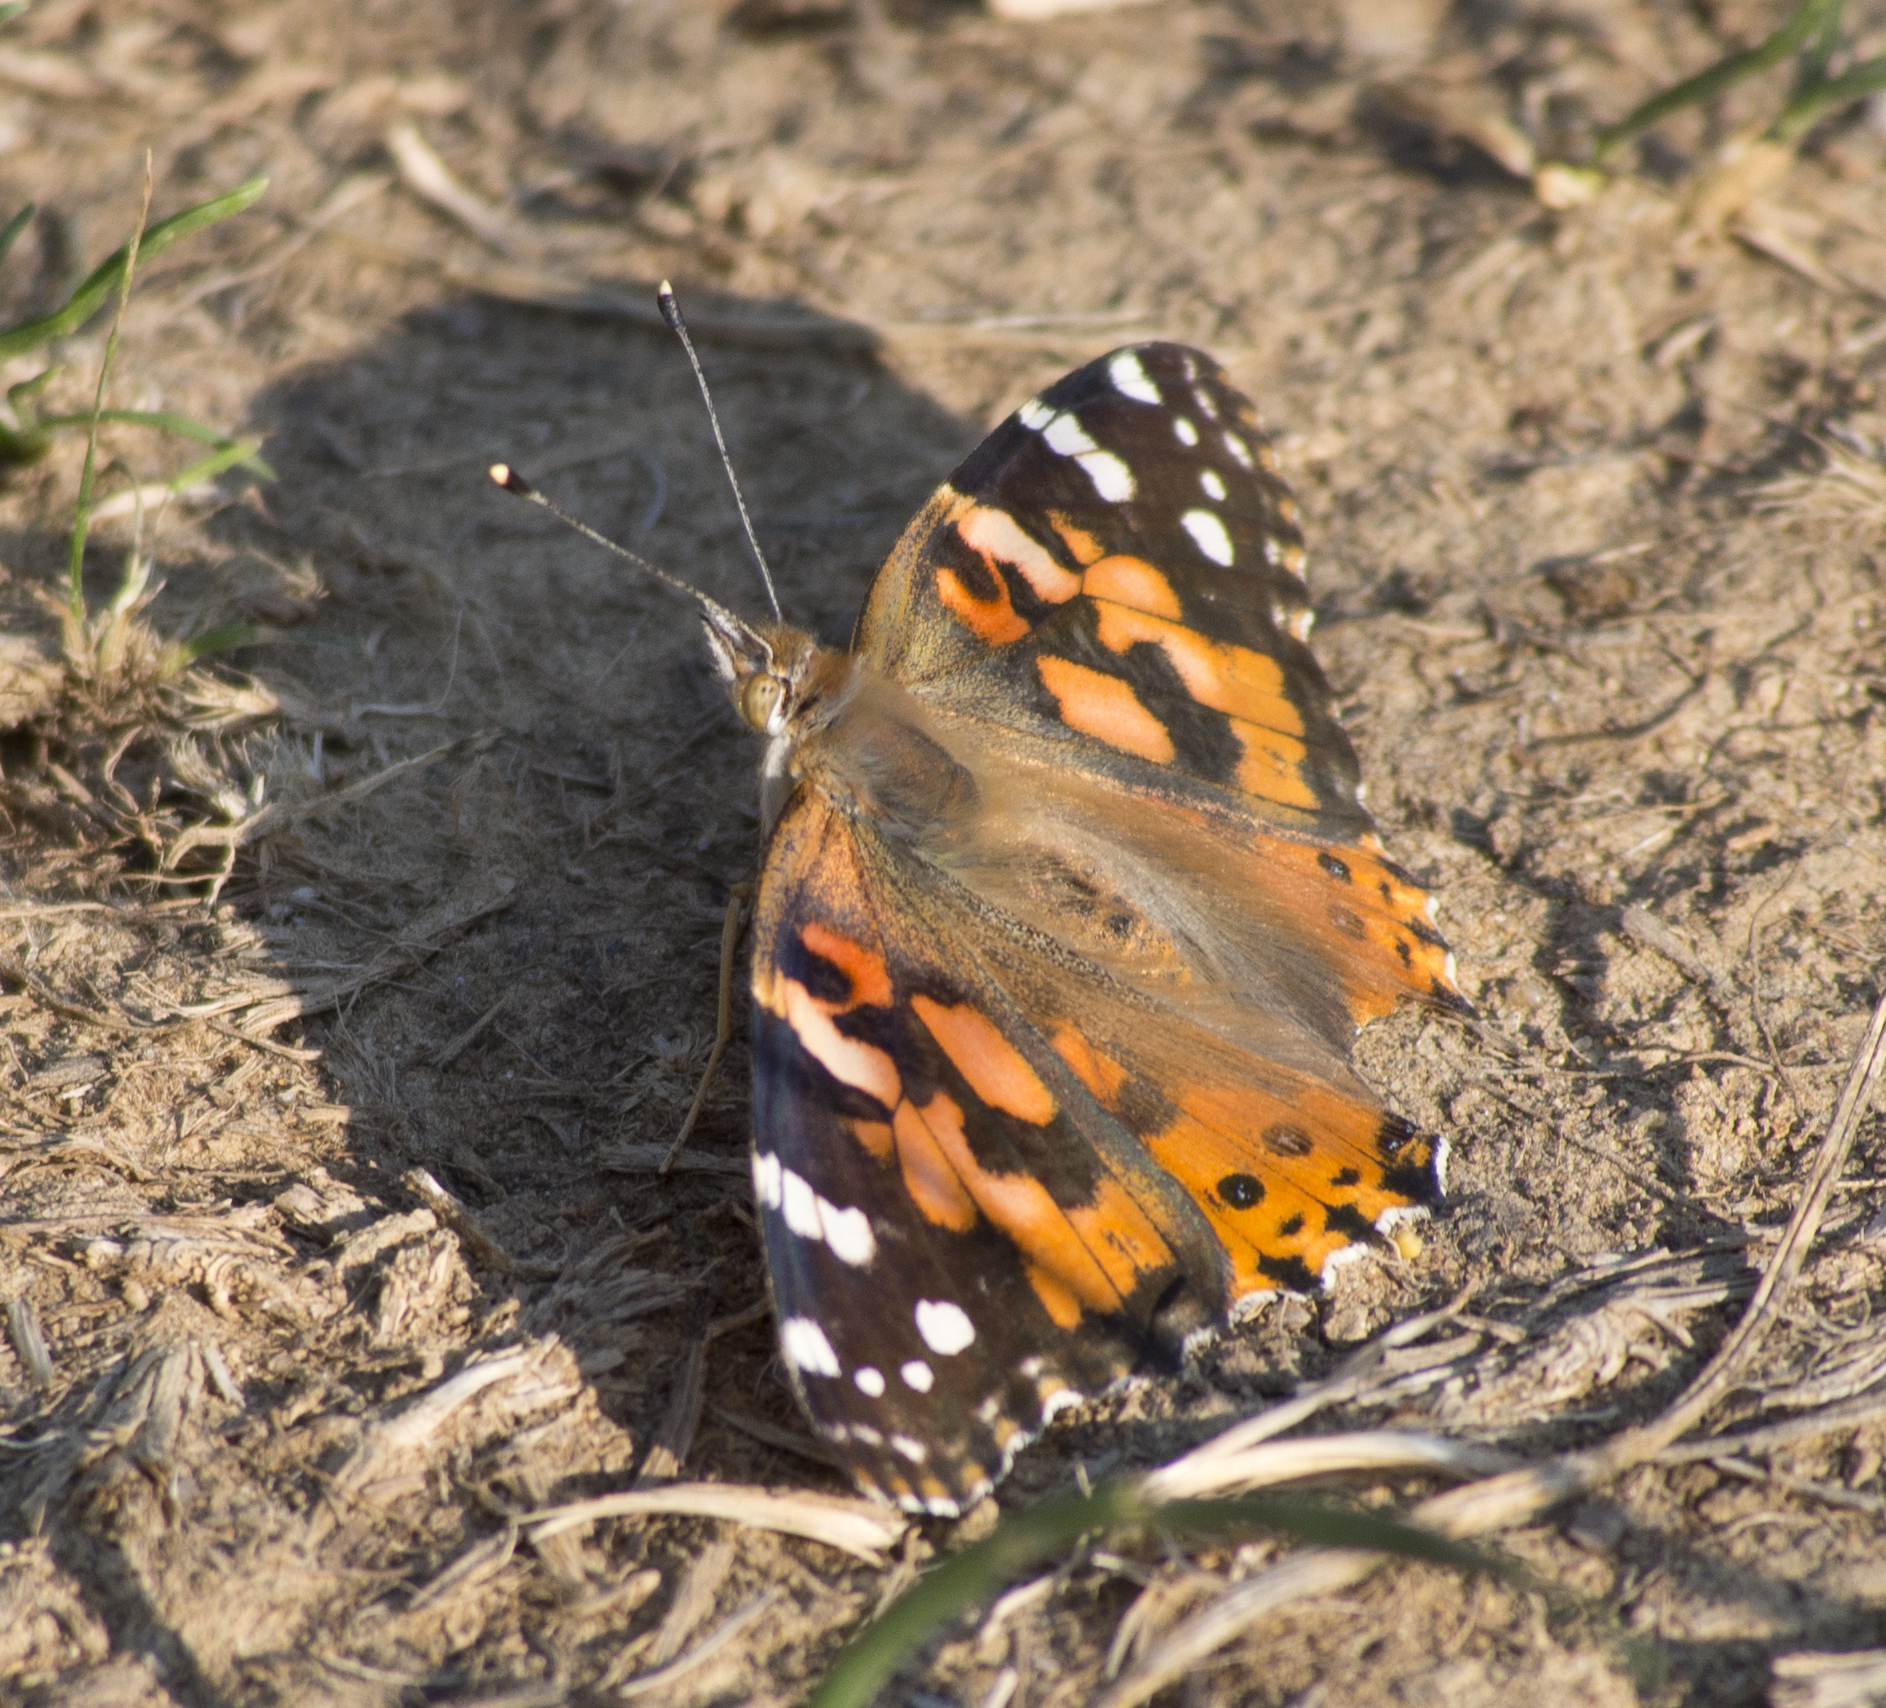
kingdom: Animalia
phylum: Arthropoda
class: Insecta
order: Lepidoptera
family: Nymphalidae
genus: Vanessa
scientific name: Vanessa cardui
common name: Painted lady
